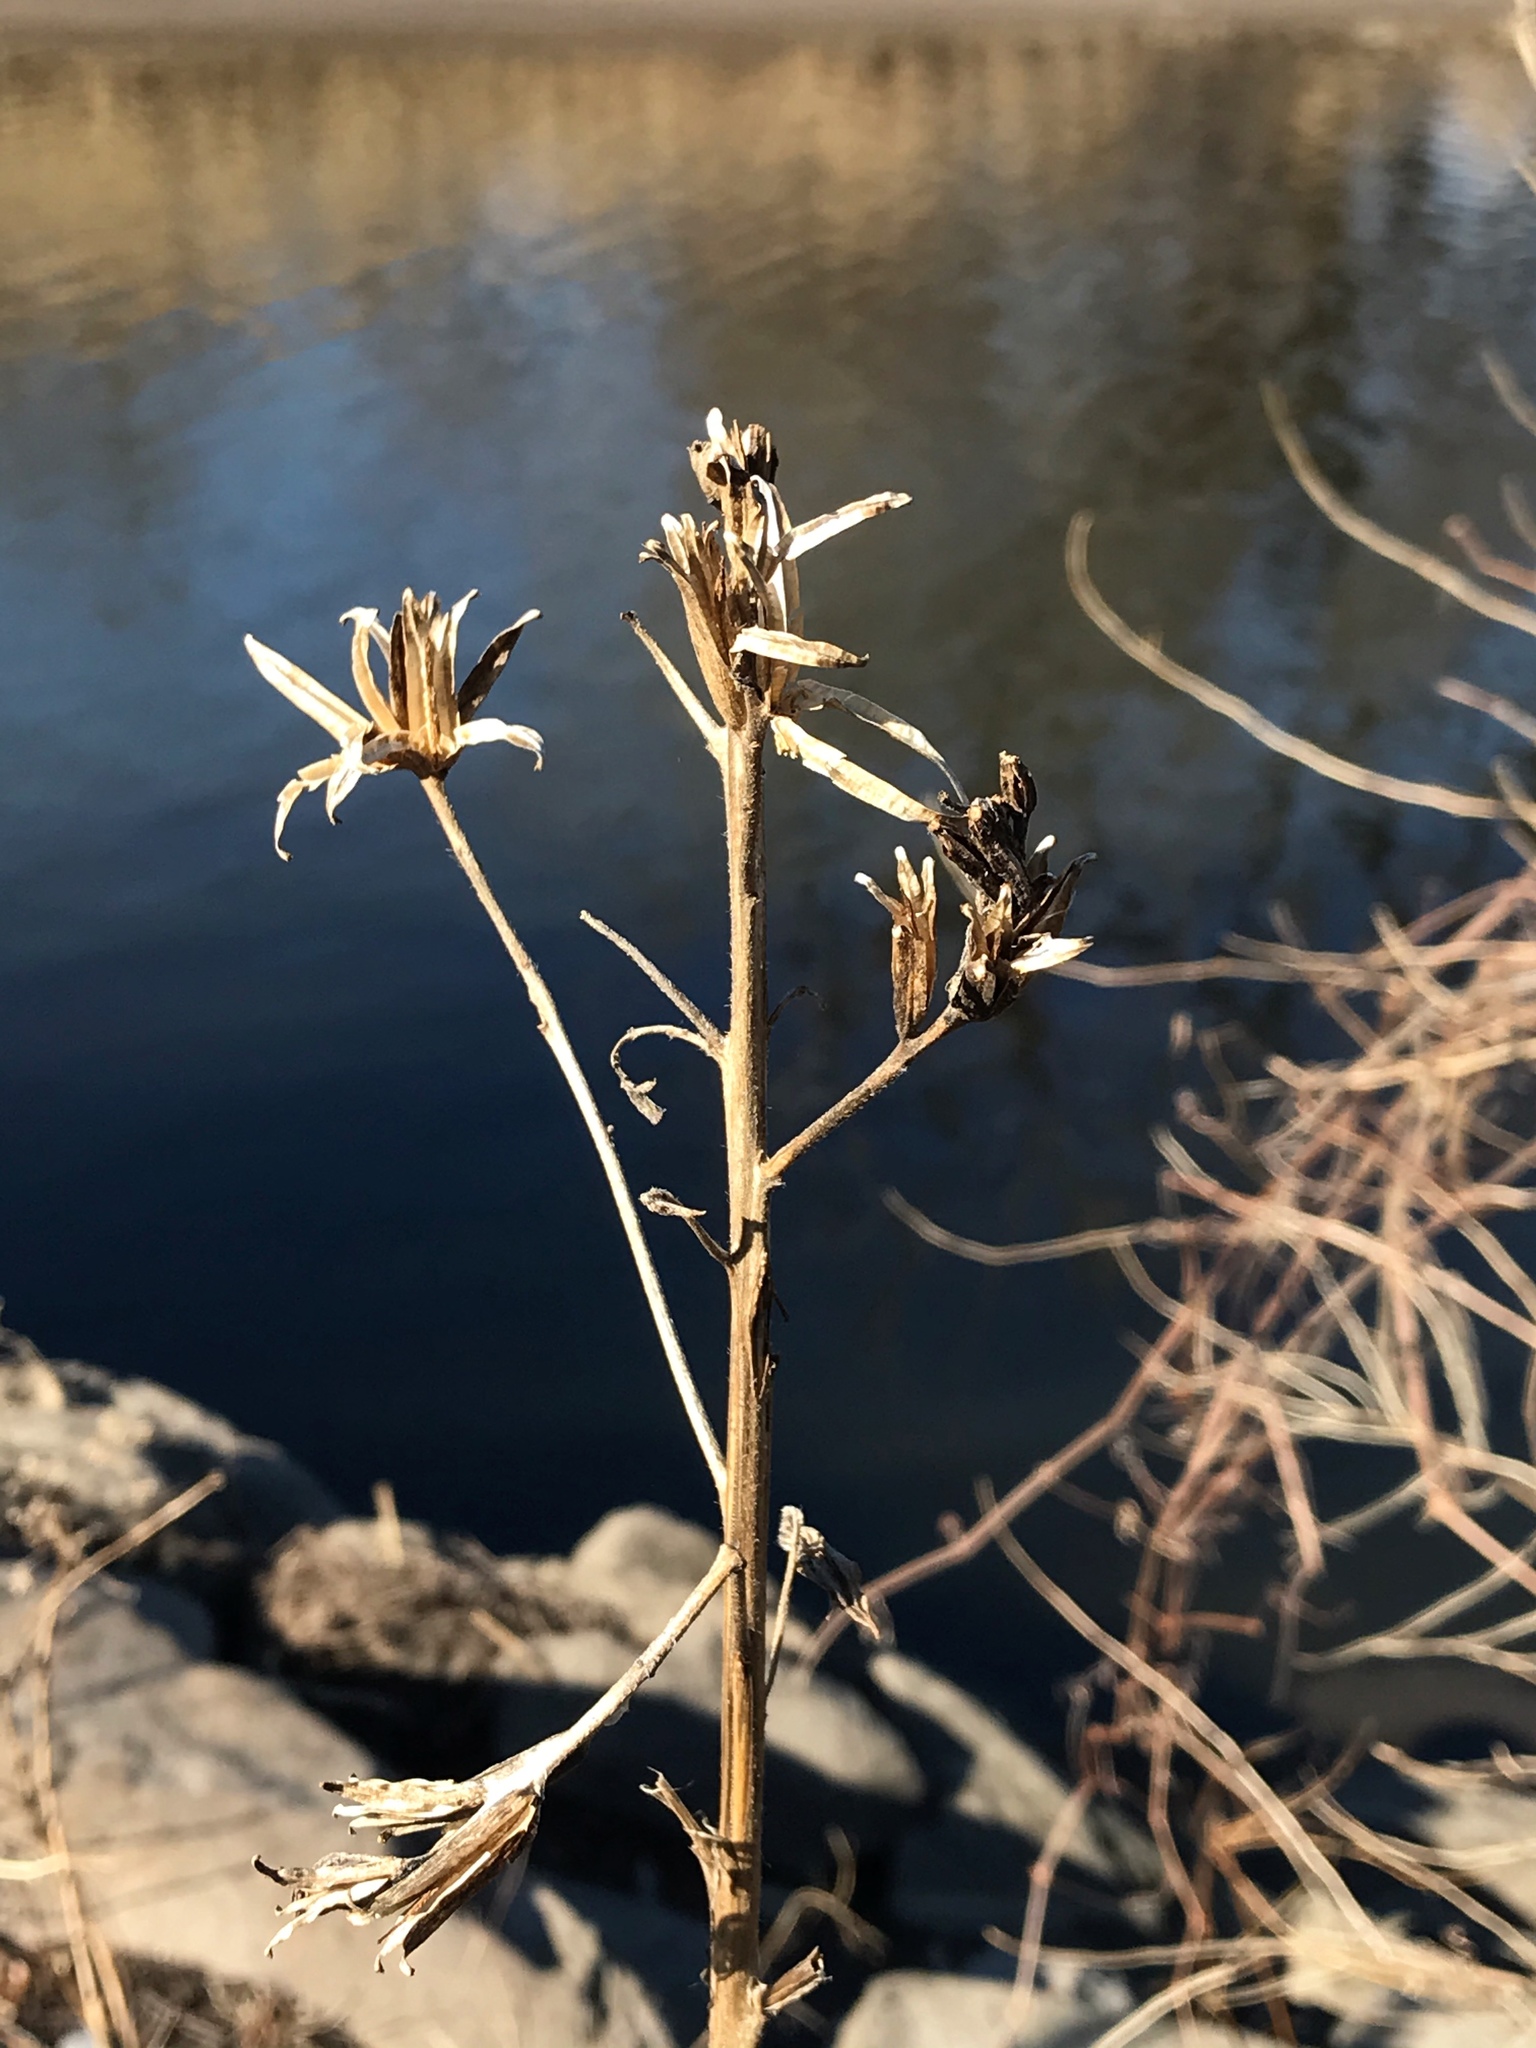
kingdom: Plantae
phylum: Tracheophyta
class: Magnoliopsida
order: Myrtales
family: Onagraceae
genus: Oenothera
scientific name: Oenothera biennis
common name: Common evening-primrose
